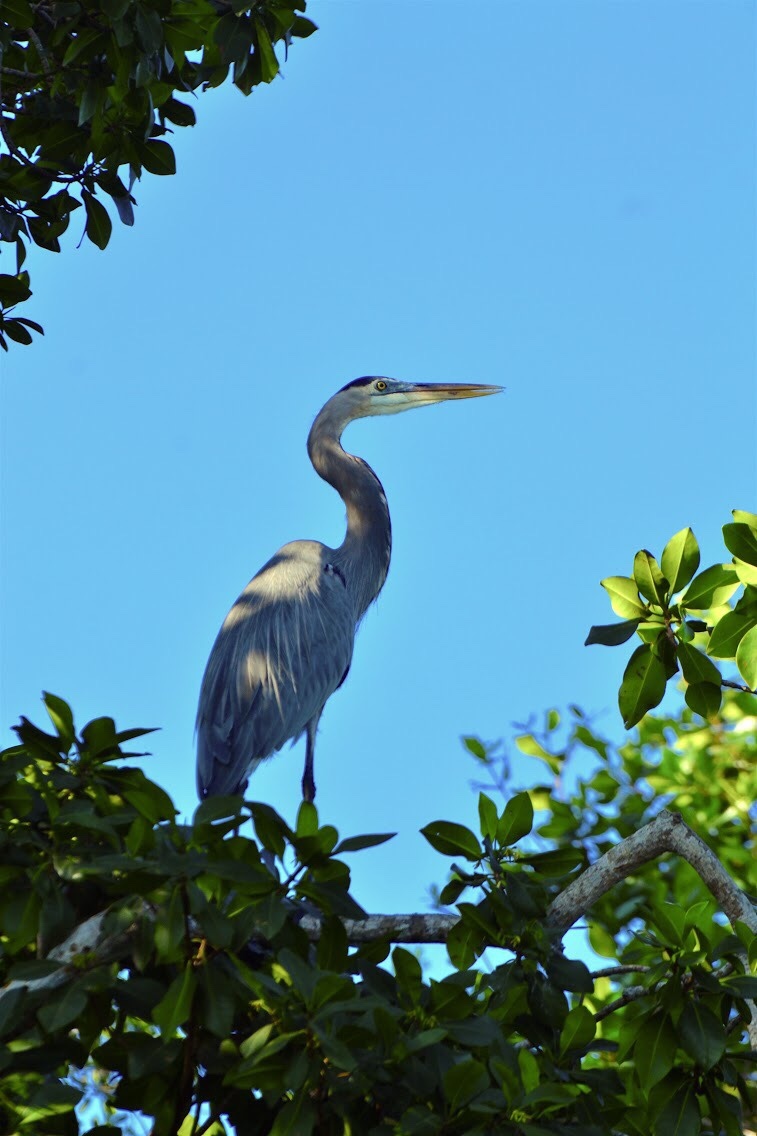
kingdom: Animalia
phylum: Chordata
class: Aves
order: Pelecaniformes
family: Ardeidae
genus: Ardea
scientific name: Ardea herodias
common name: Great blue heron
